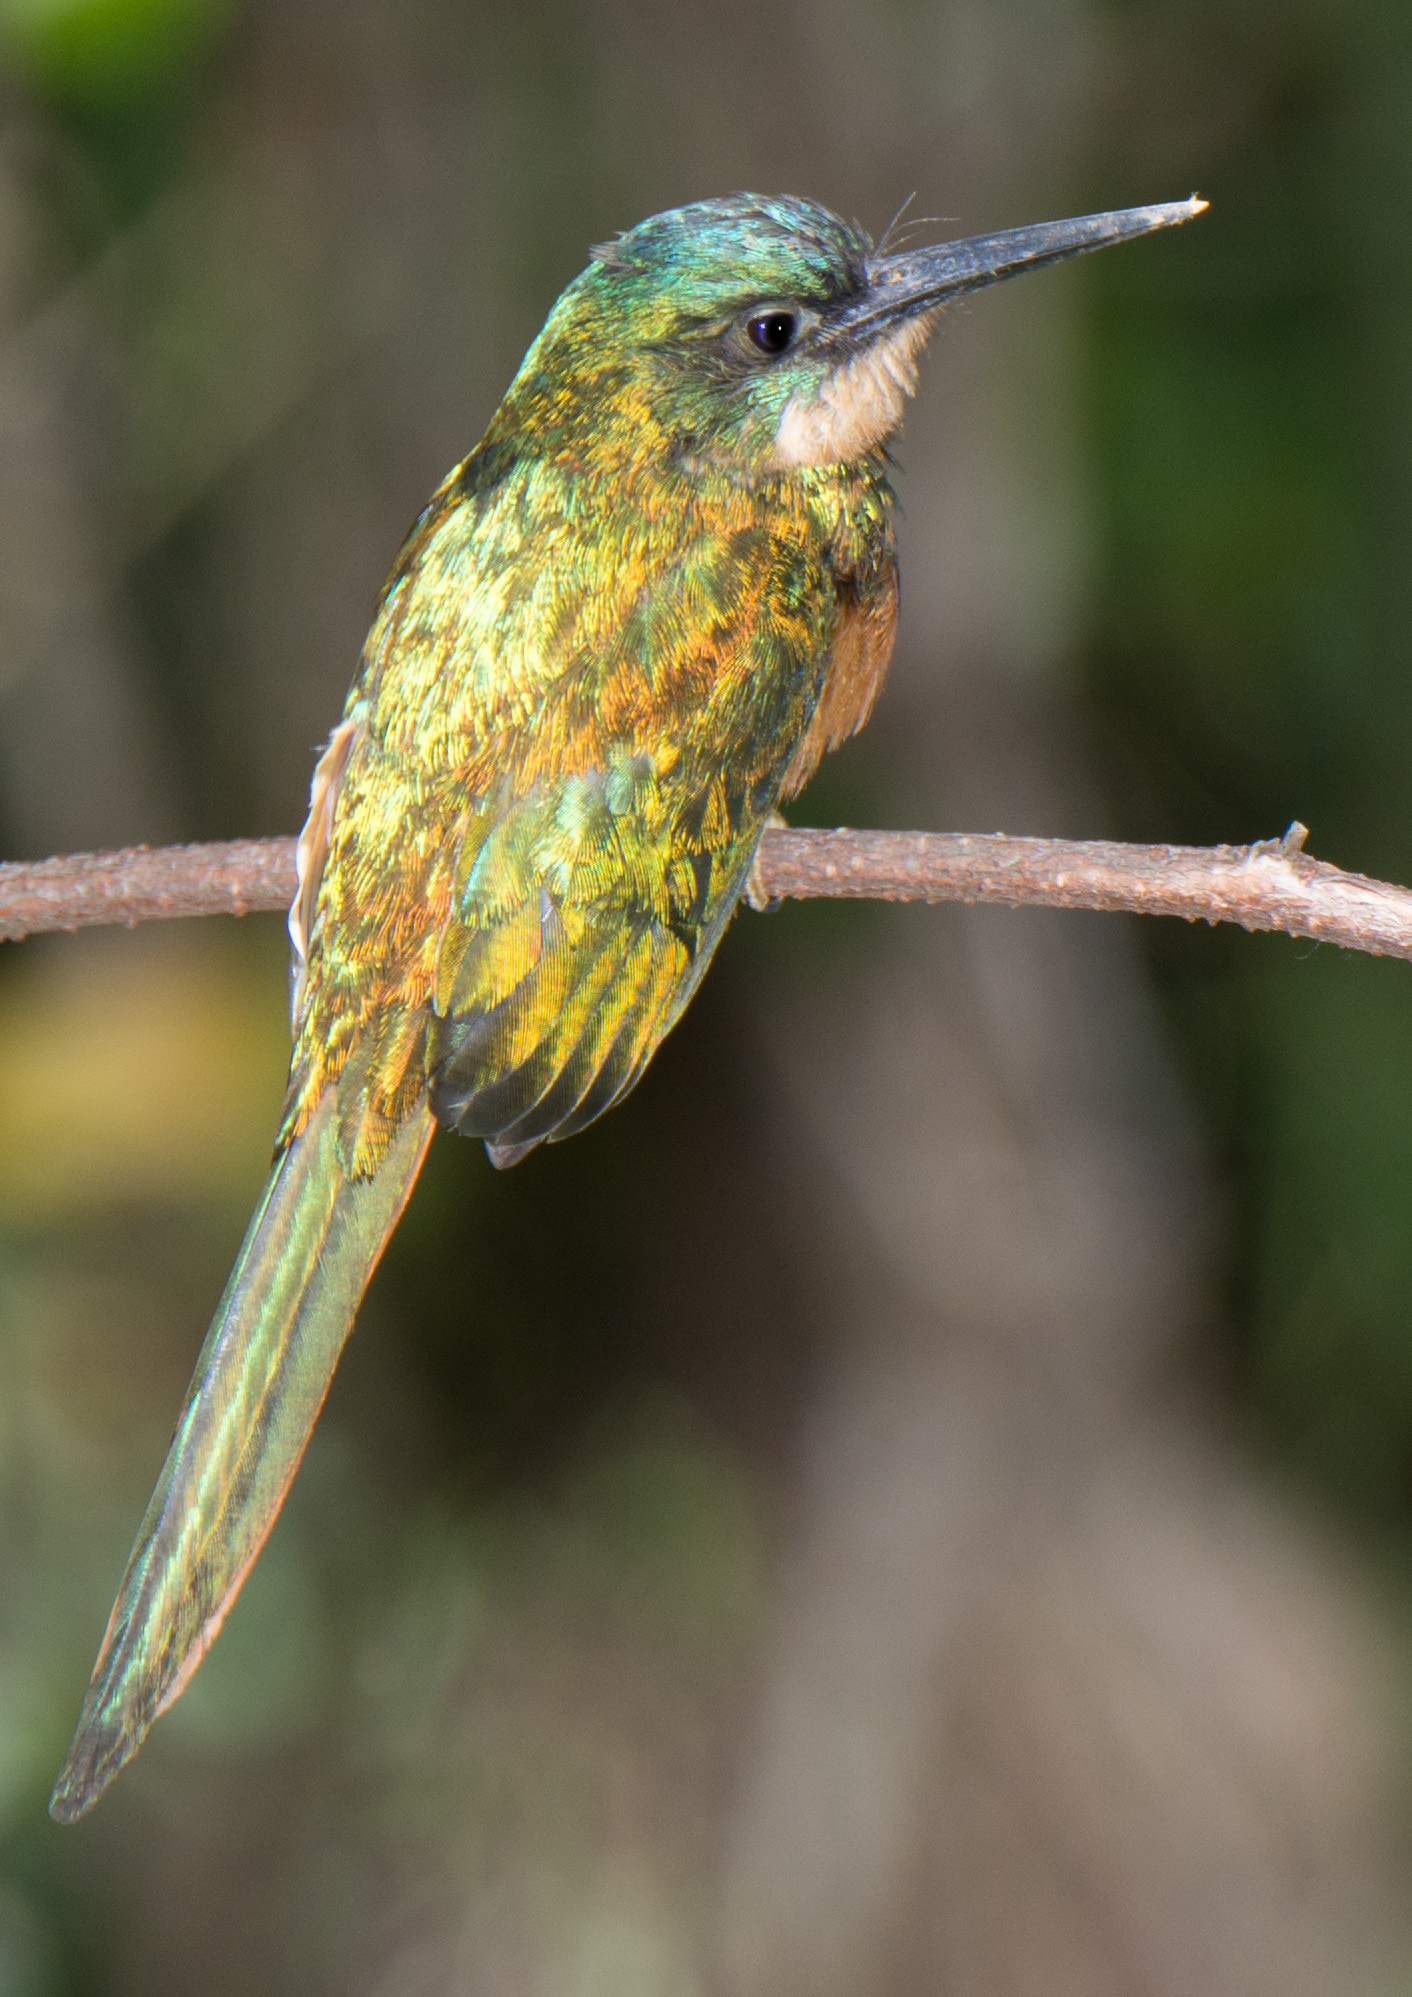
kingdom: Animalia
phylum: Chordata
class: Aves
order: Piciformes
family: Galbulidae
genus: Galbula
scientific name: Galbula ruficauda
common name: Rufous-tailed jacamar
